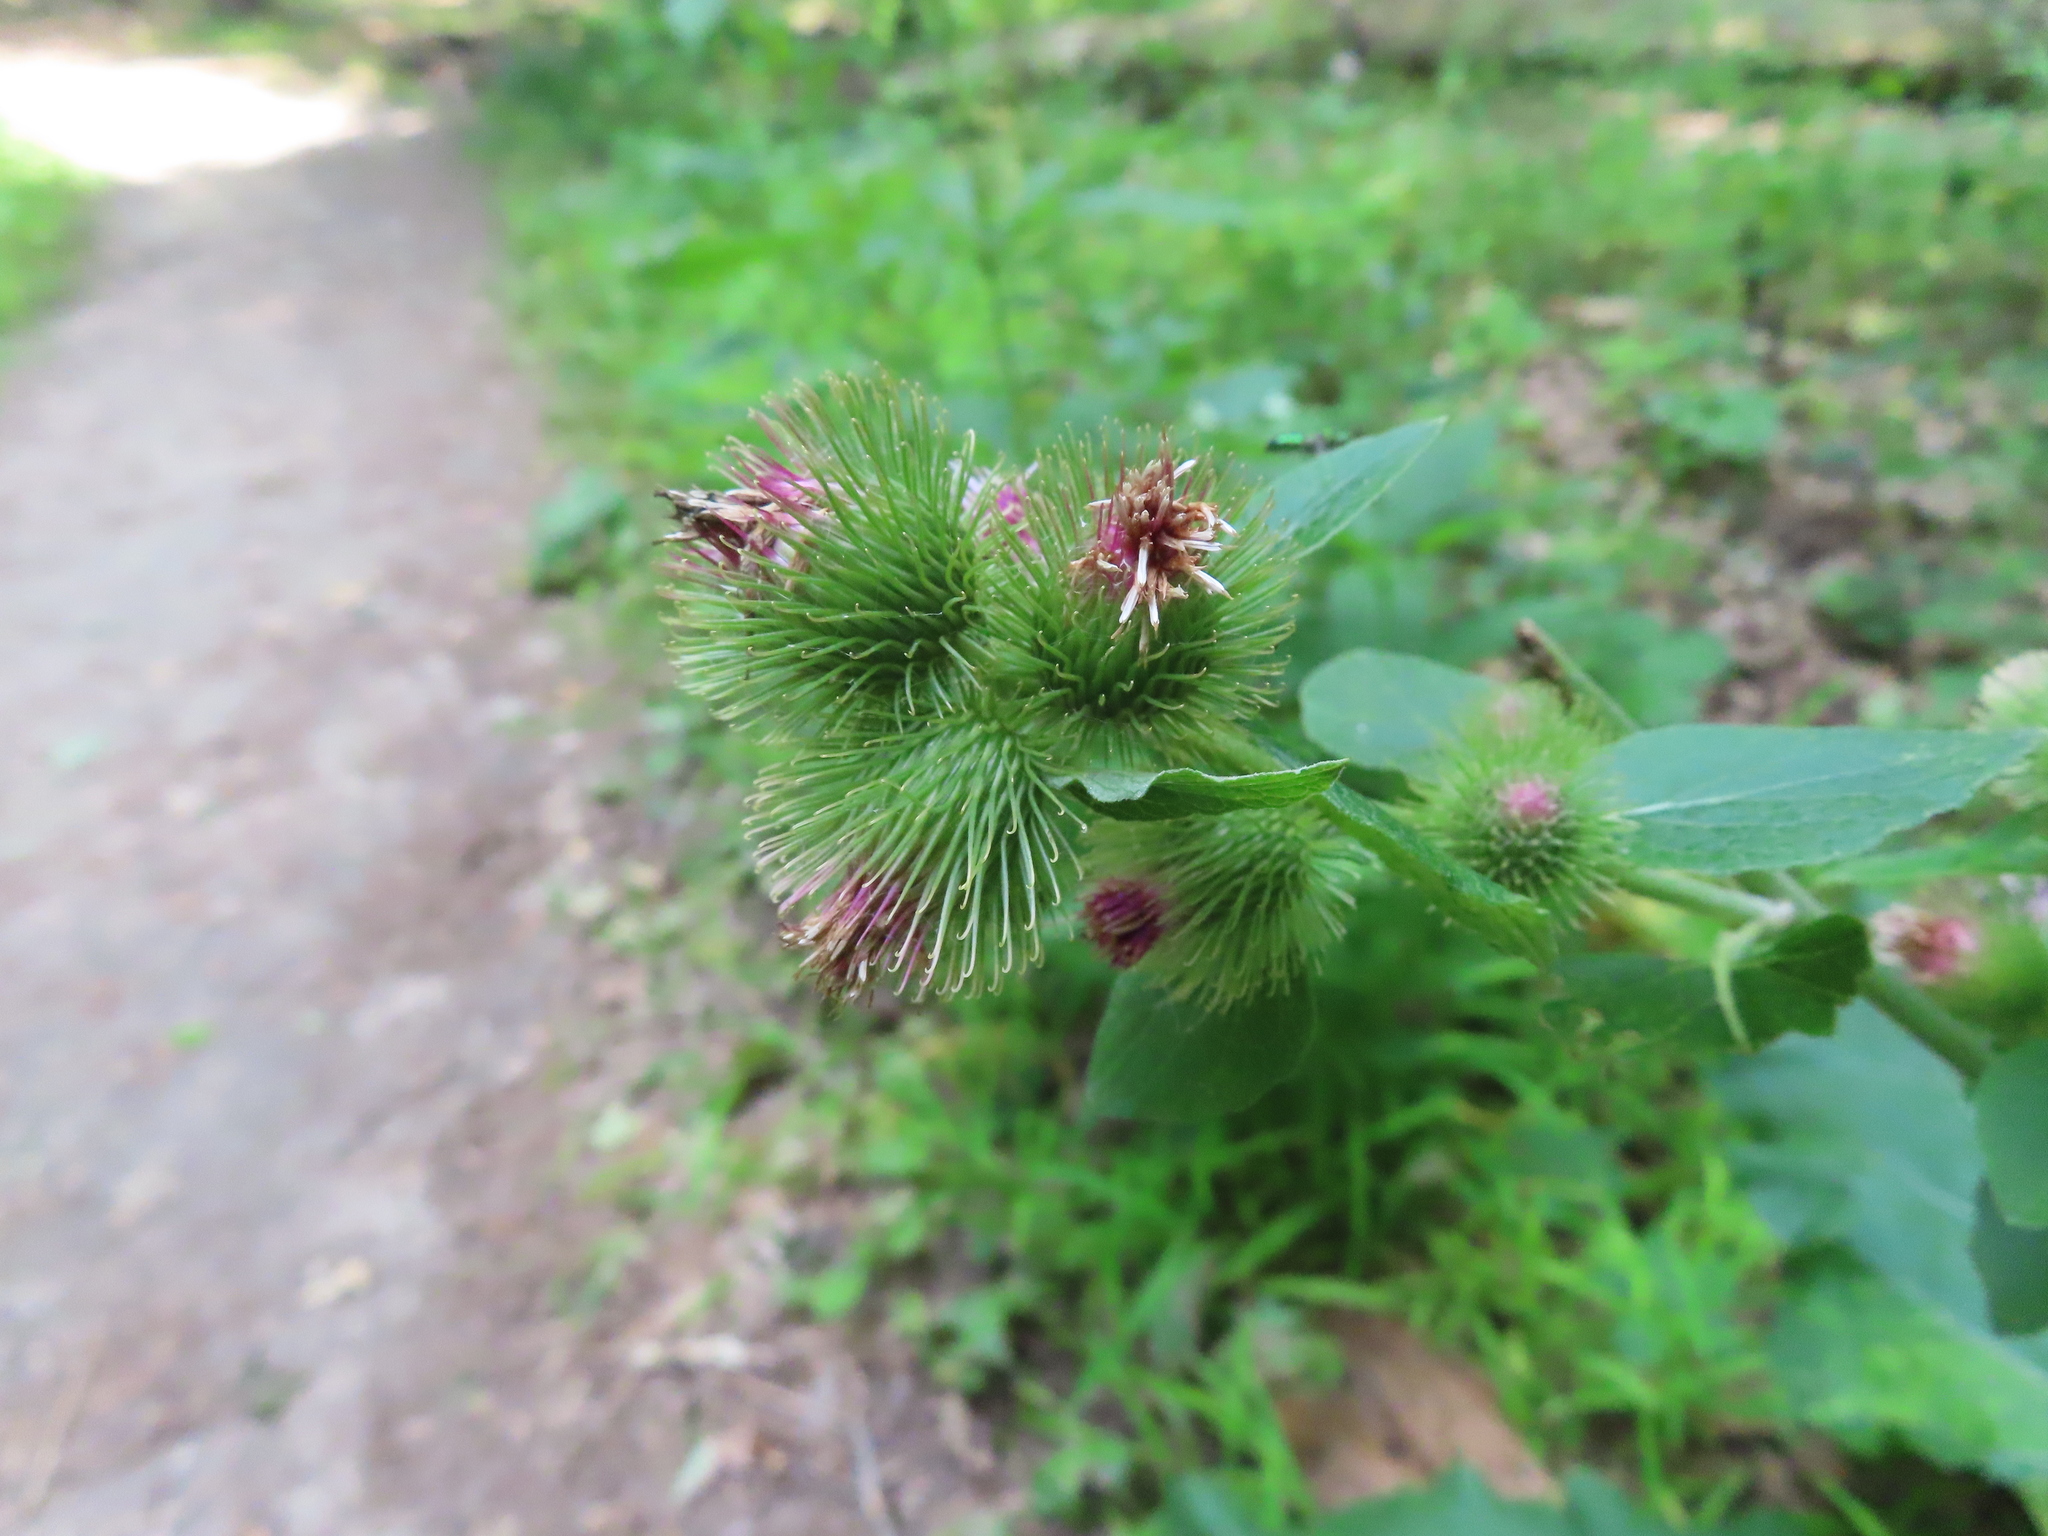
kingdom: Plantae
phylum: Tracheophyta
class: Magnoliopsida
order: Asterales
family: Asteraceae
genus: Arctium
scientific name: Arctium minus
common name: Lesser burdock
